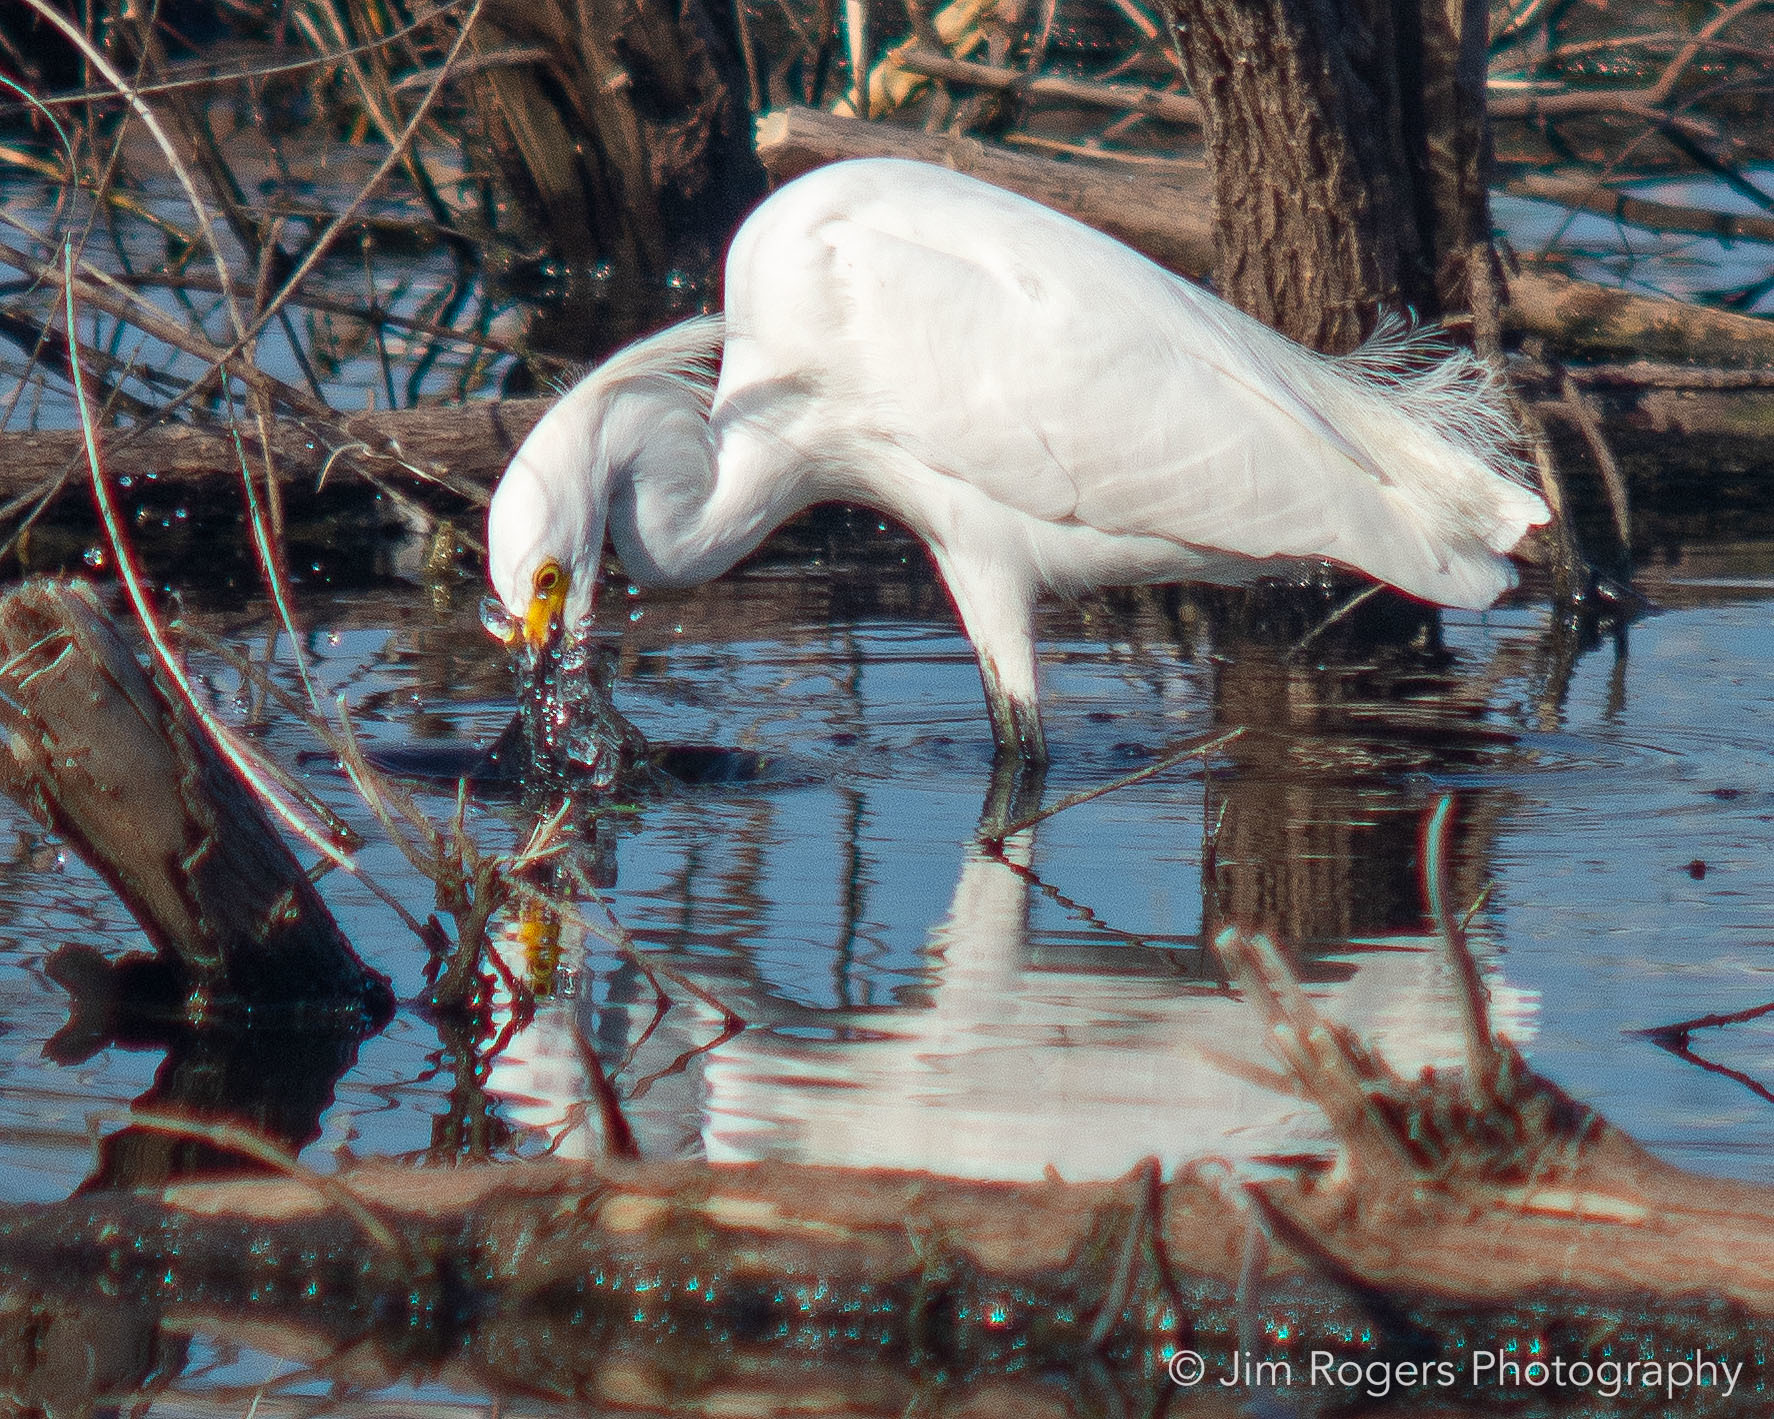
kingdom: Animalia
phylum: Chordata
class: Aves
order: Pelecaniformes
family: Ardeidae
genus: Egretta
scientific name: Egretta thula
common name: Snowy egret
